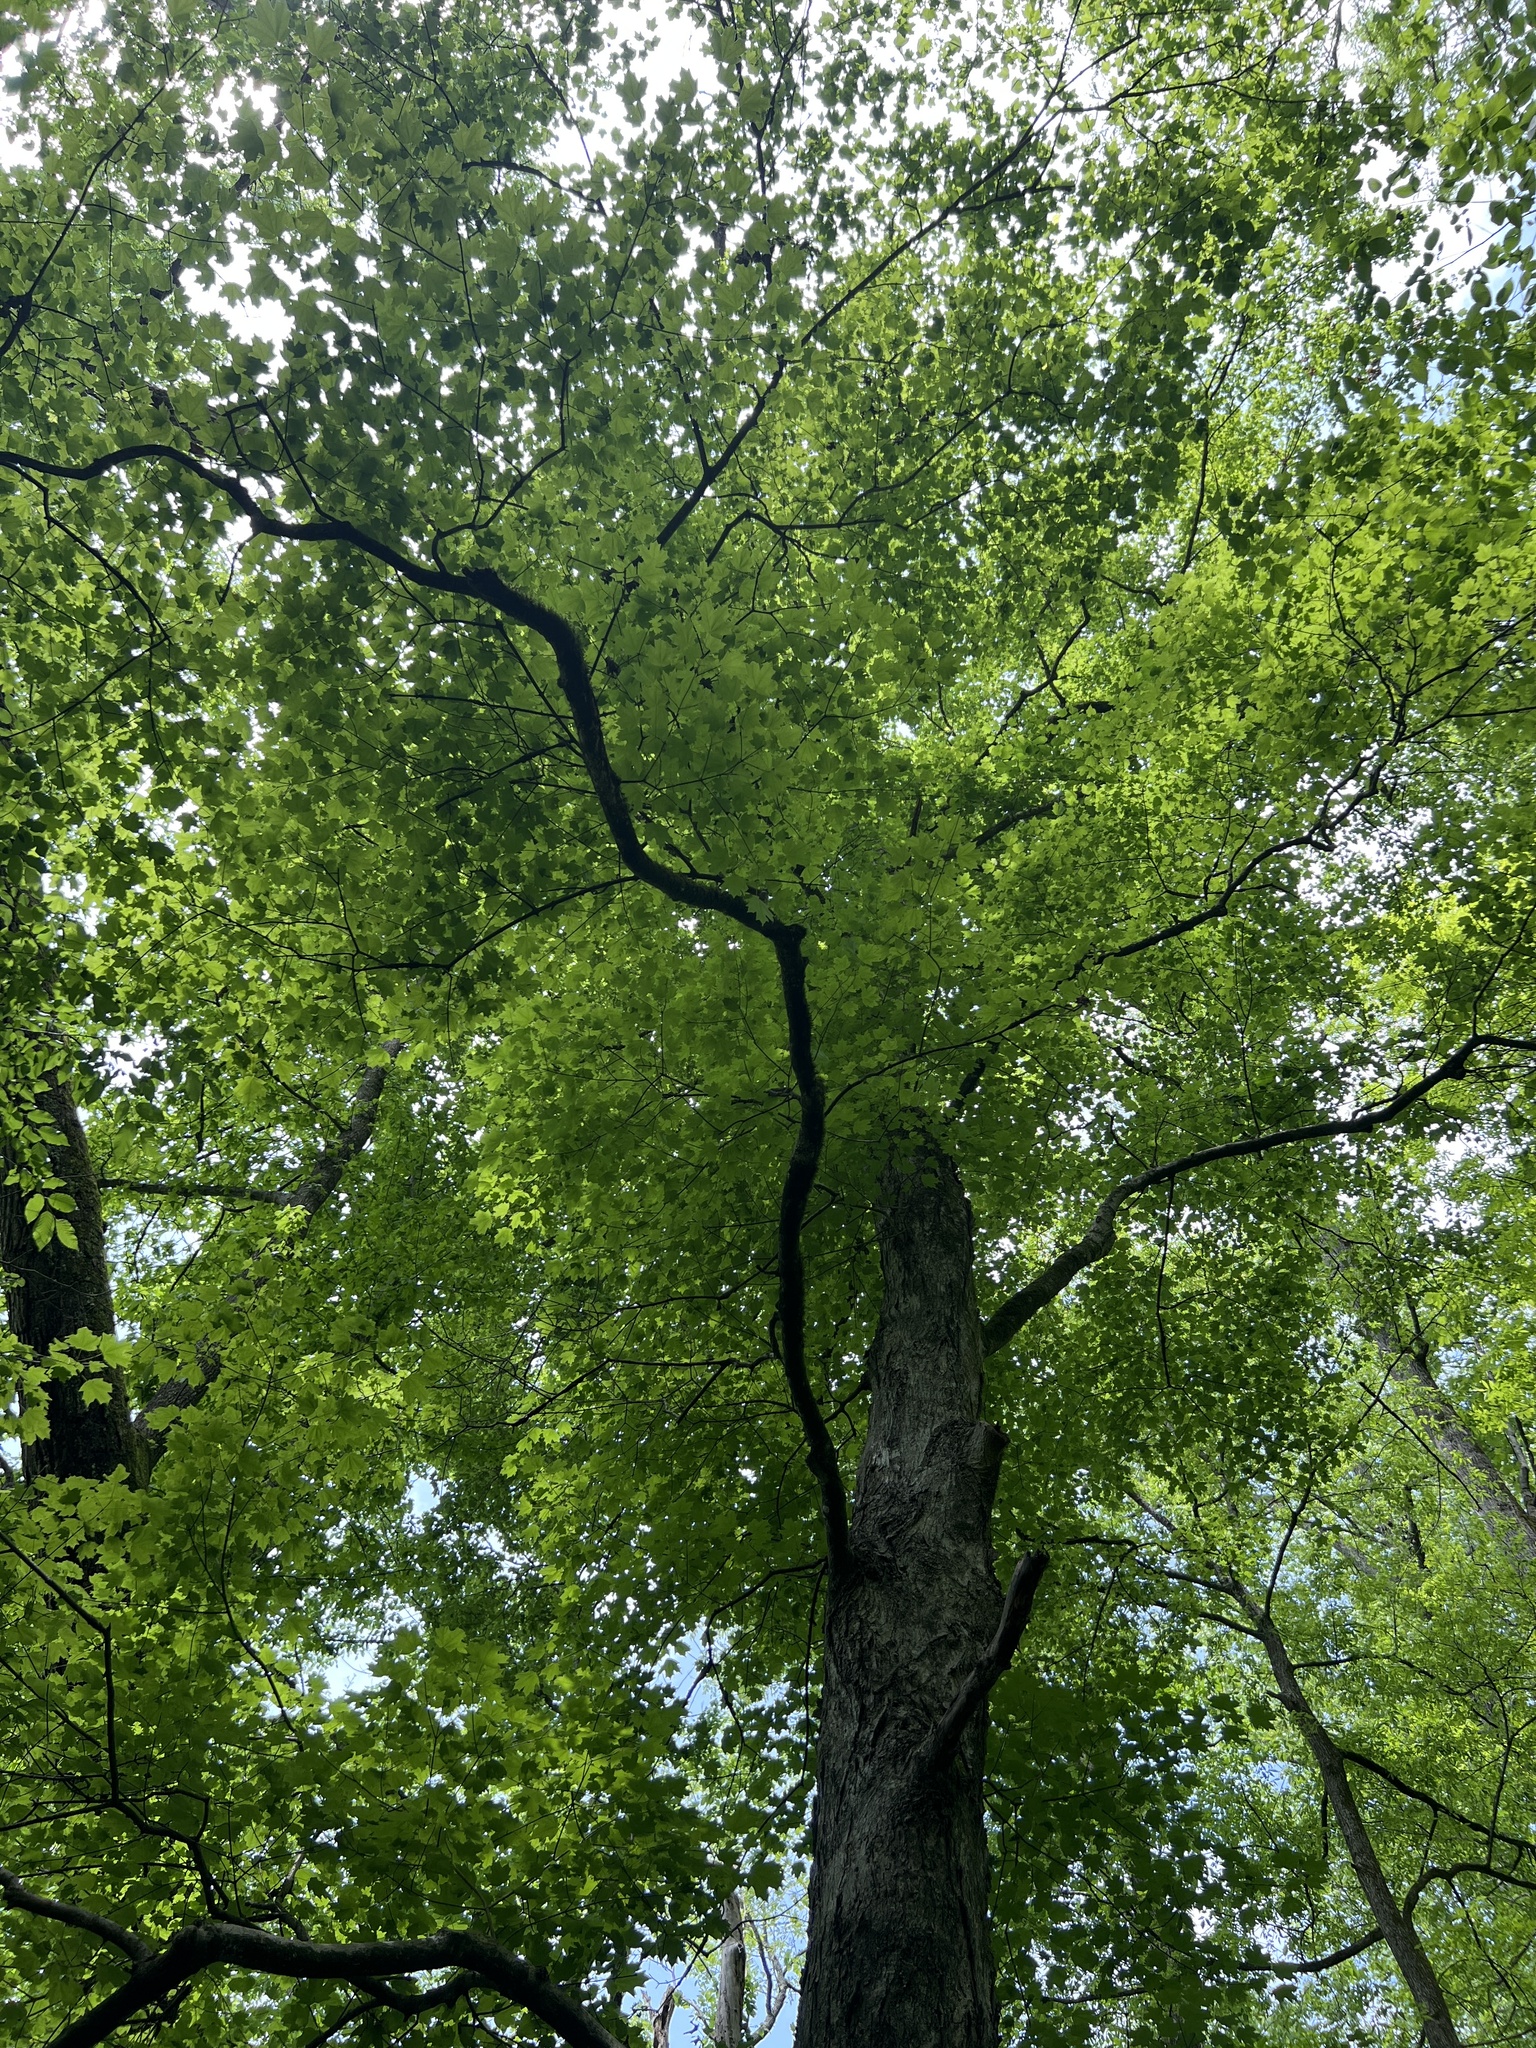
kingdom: Plantae
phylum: Tracheophyta
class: Magnoliopsida
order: Sapindales
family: Sapindaceae
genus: Acer
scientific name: Acer floridanum
